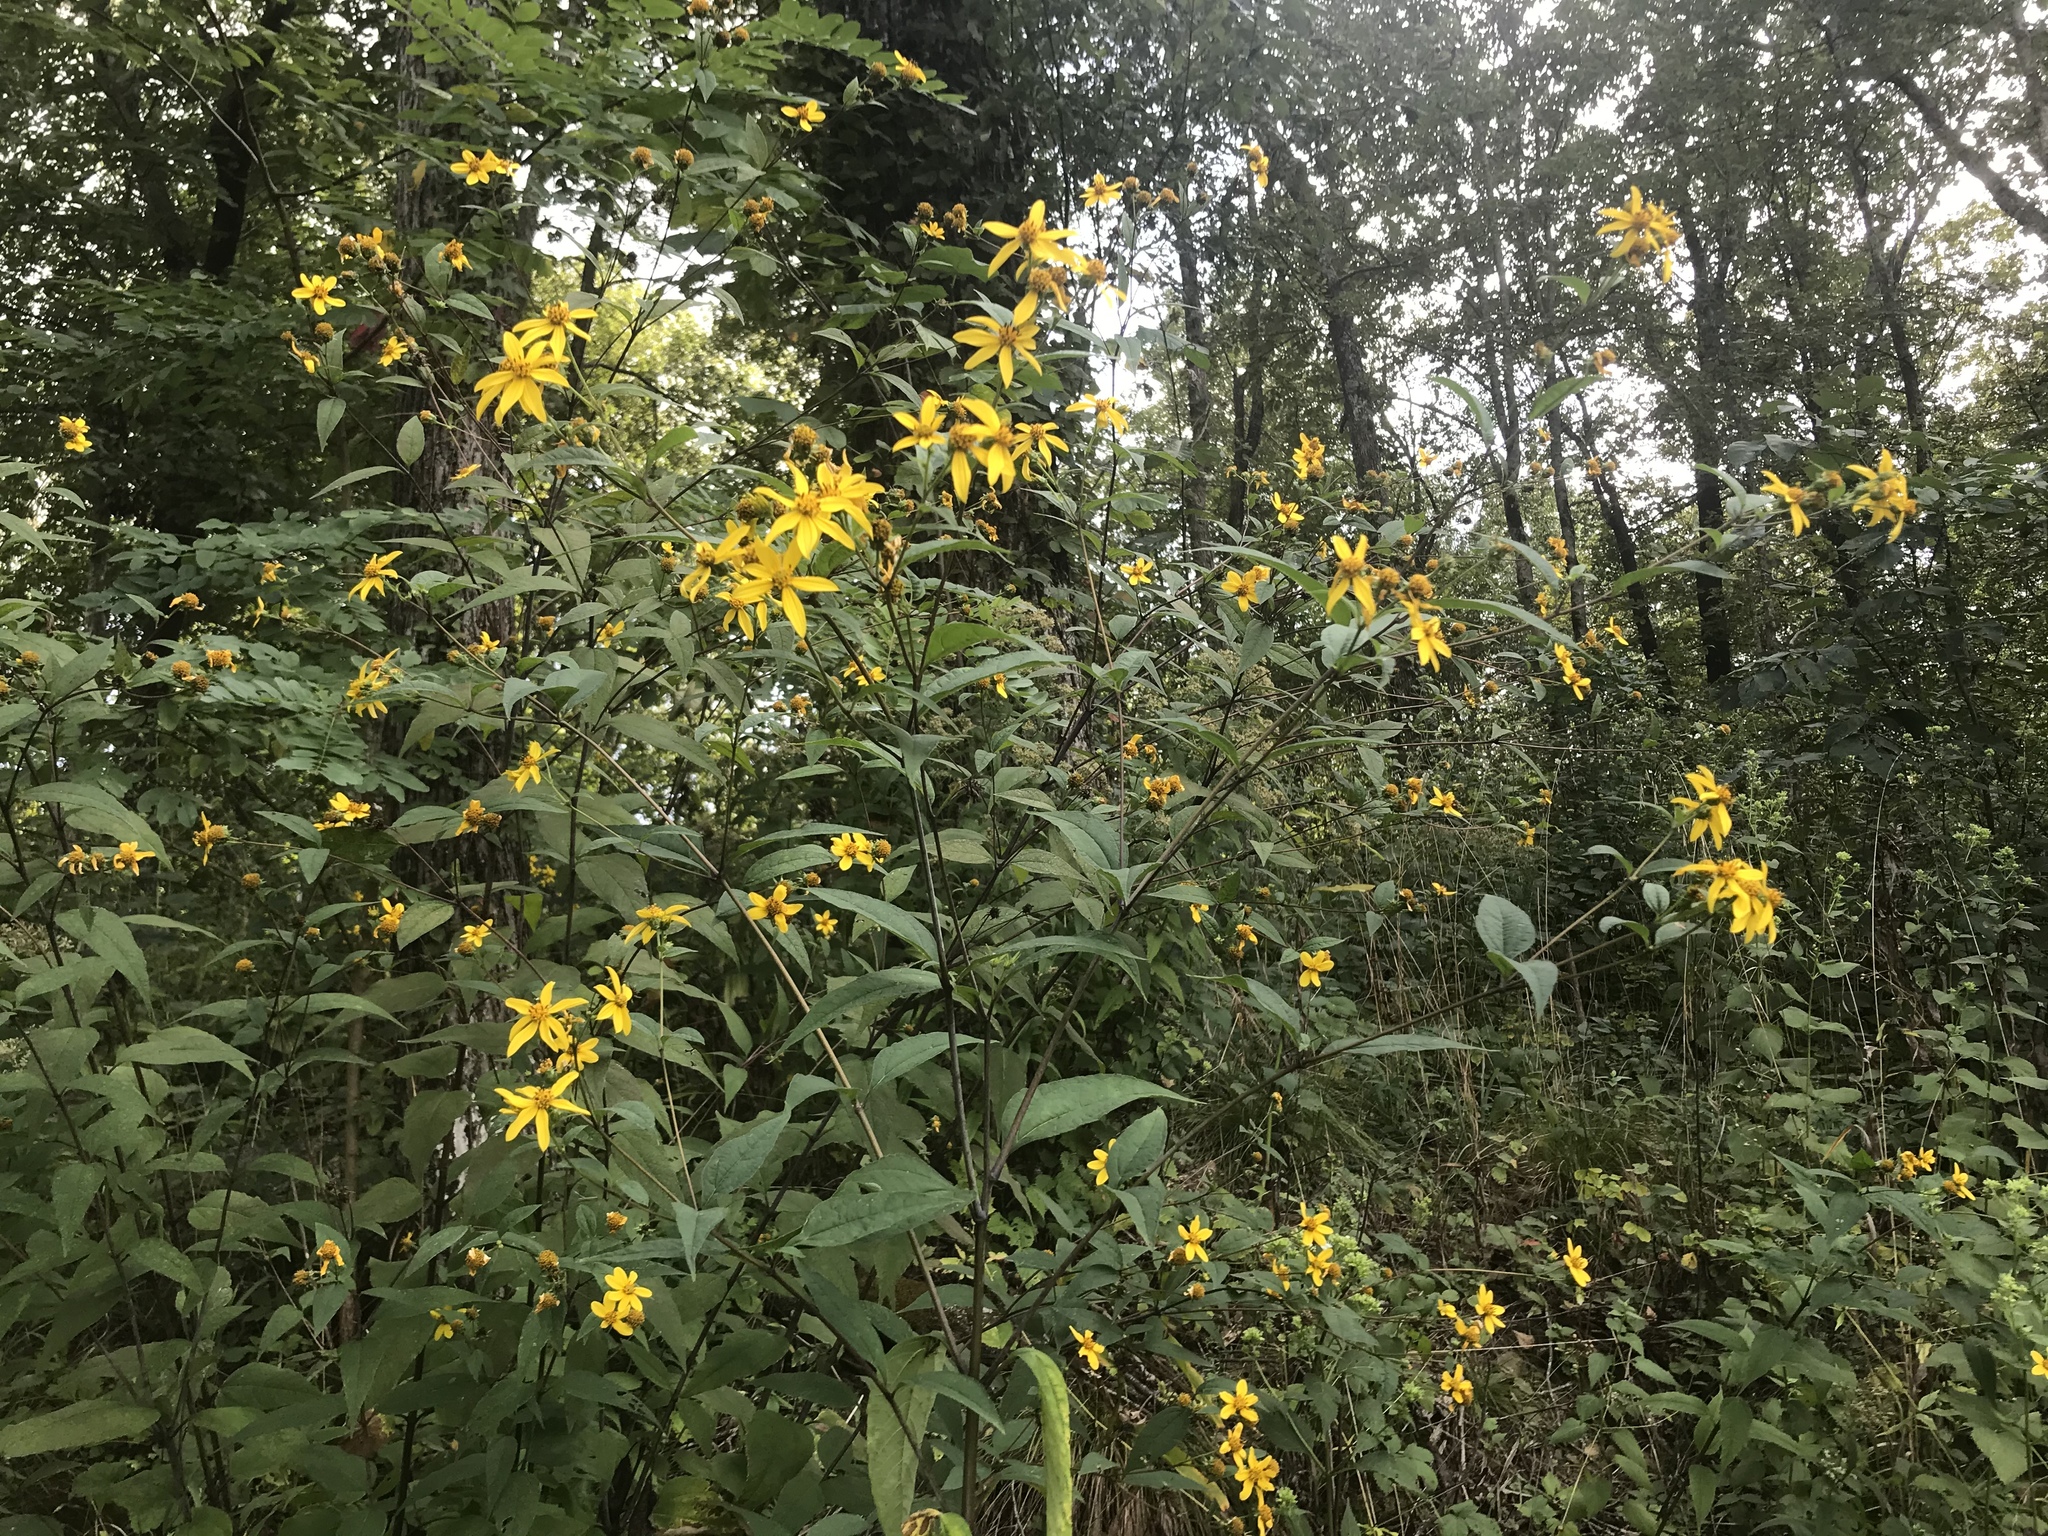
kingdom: Plantae
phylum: Tracheophyta
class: Magnoliopsida
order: Asterales
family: Asteraceae
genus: Helianthus
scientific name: Helianthus microcephalus
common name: Woodland sunflower
